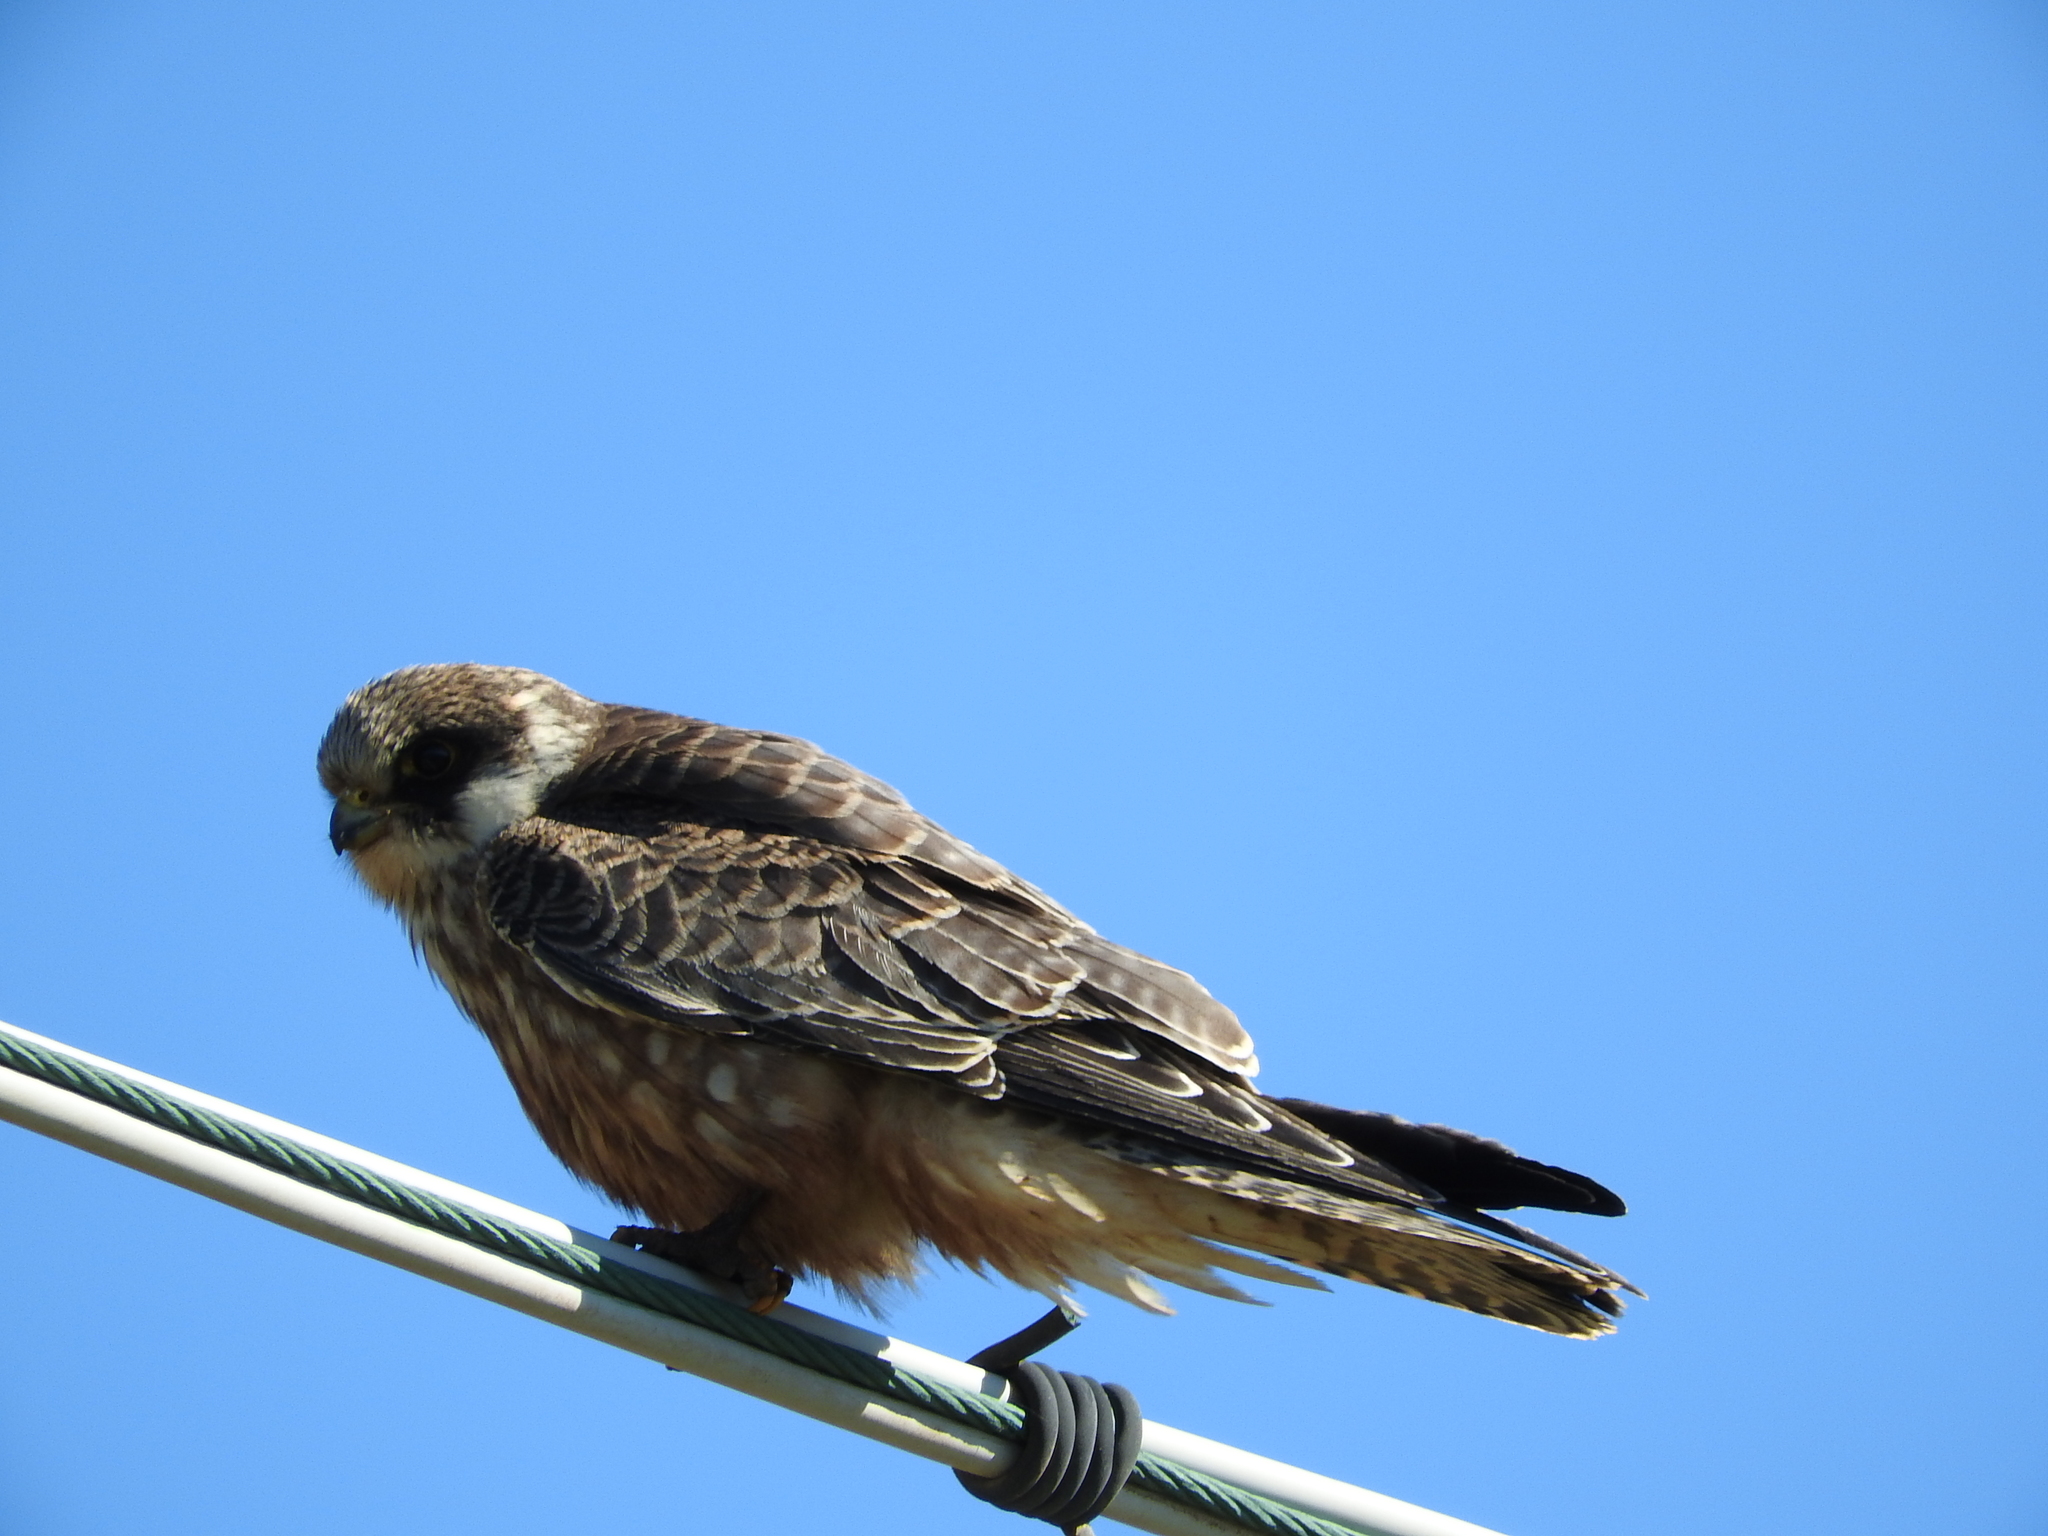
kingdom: Animalia
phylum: Chordata
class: Aves
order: Falconiformes
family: Falconidae
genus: Falco
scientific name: Falco vespertinus
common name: Red-footed falcon
